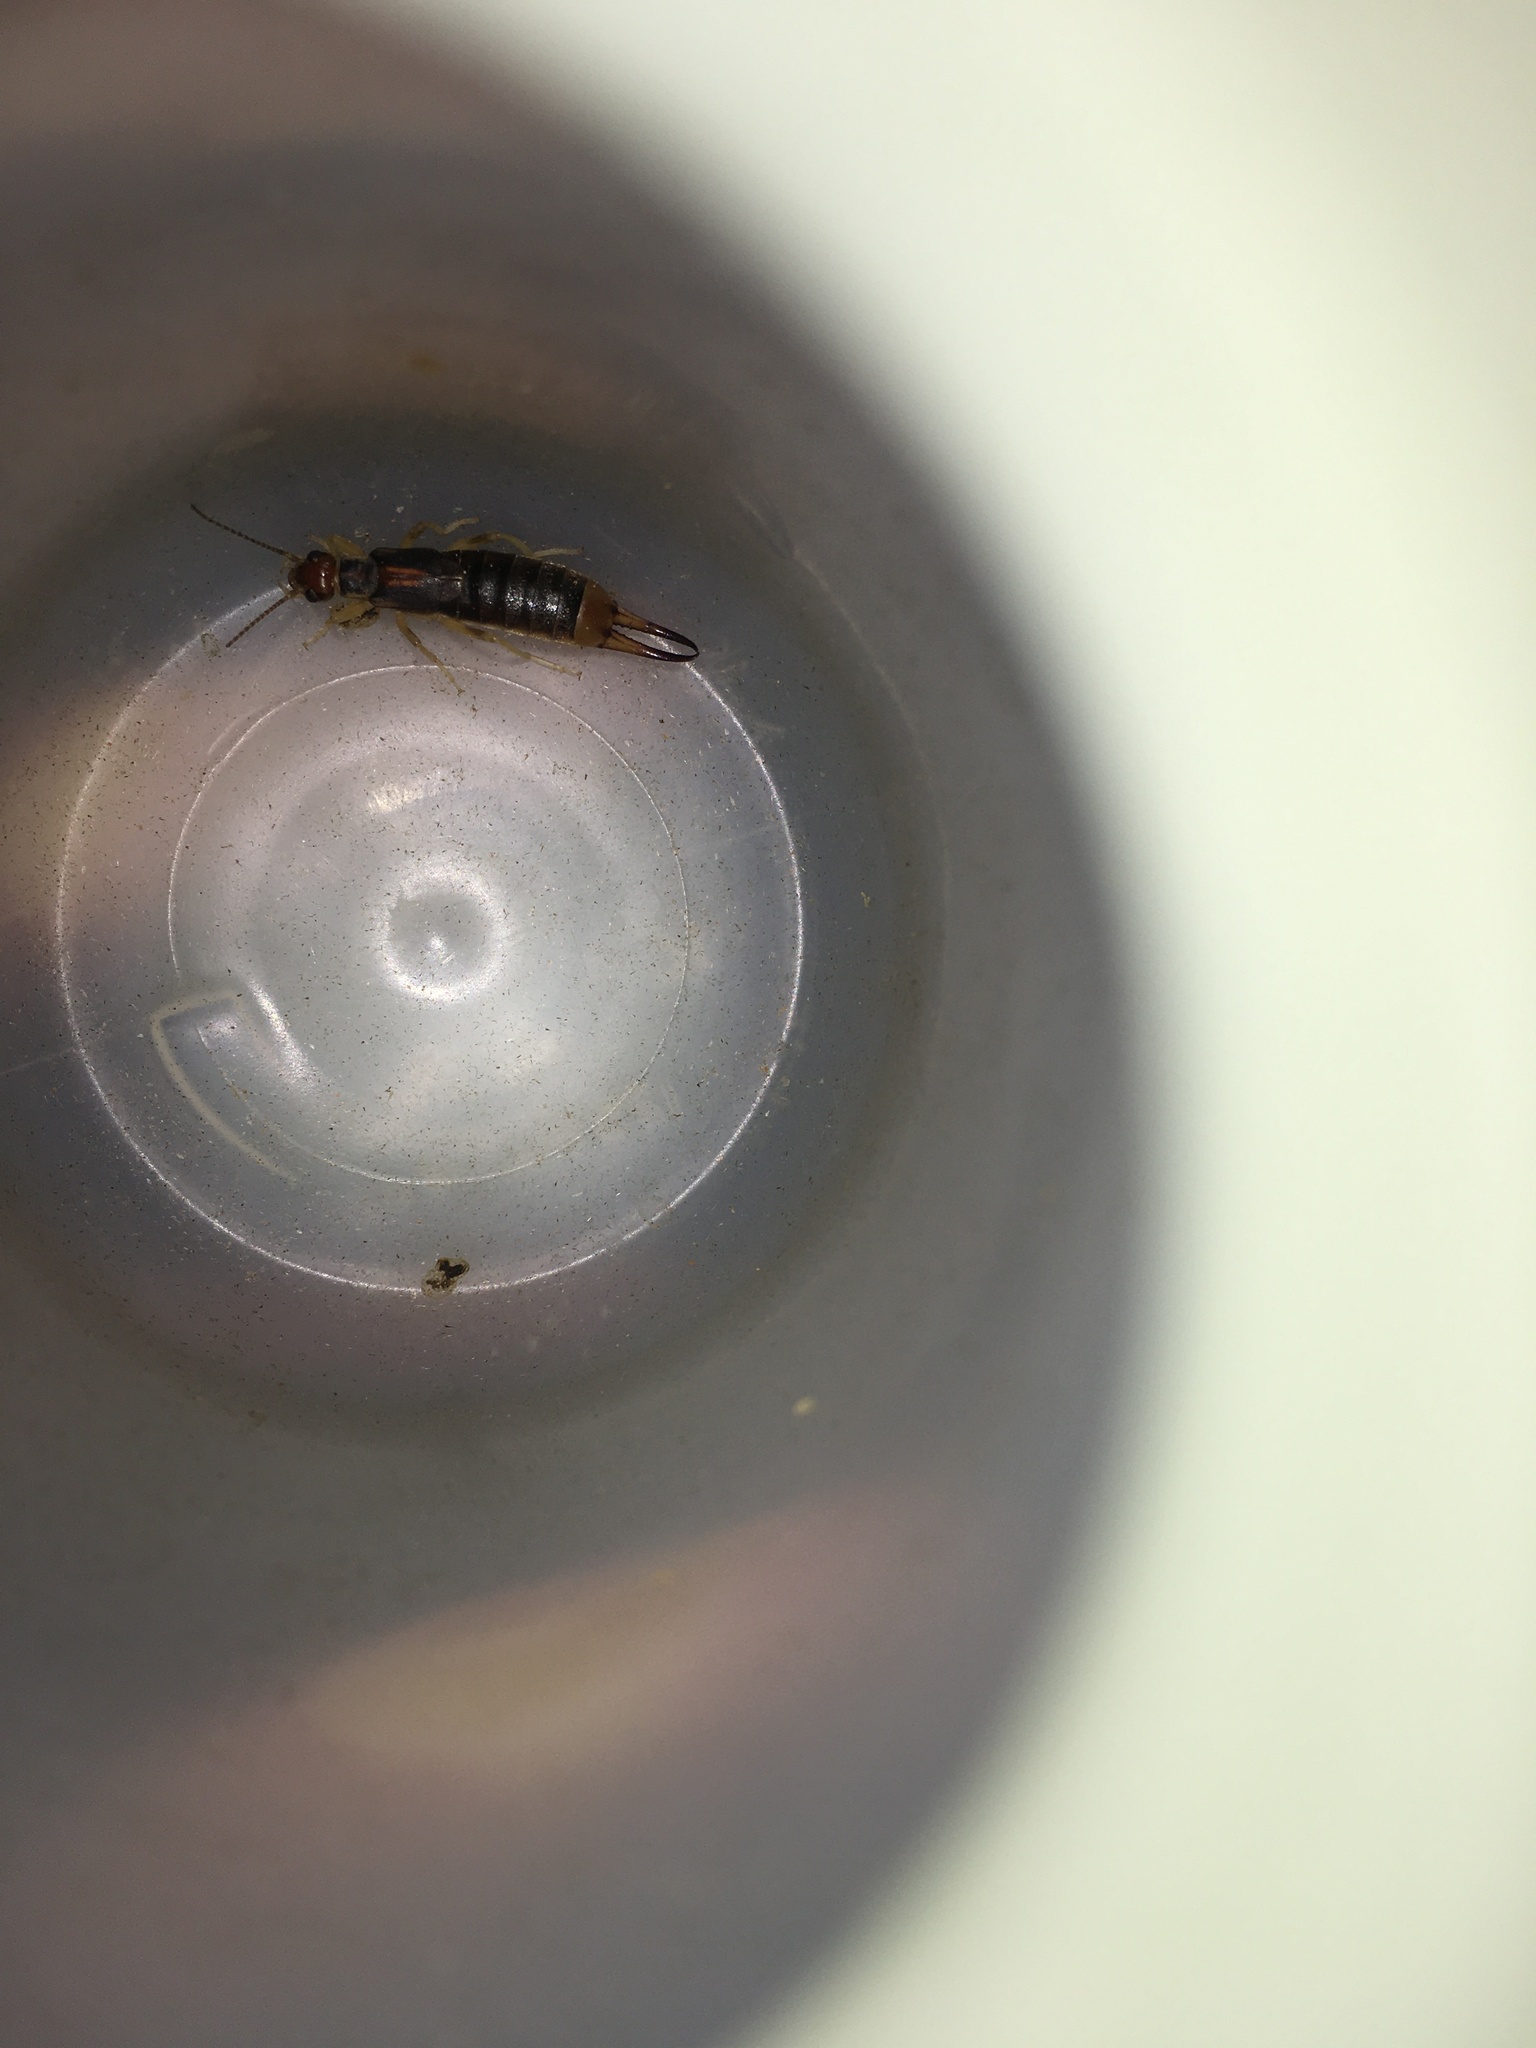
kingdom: Animalia
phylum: Arthropoda
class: Insecta
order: Dermaptera
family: Labiduridae
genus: Labidura
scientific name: Labidura riparia
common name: Striped earwig
